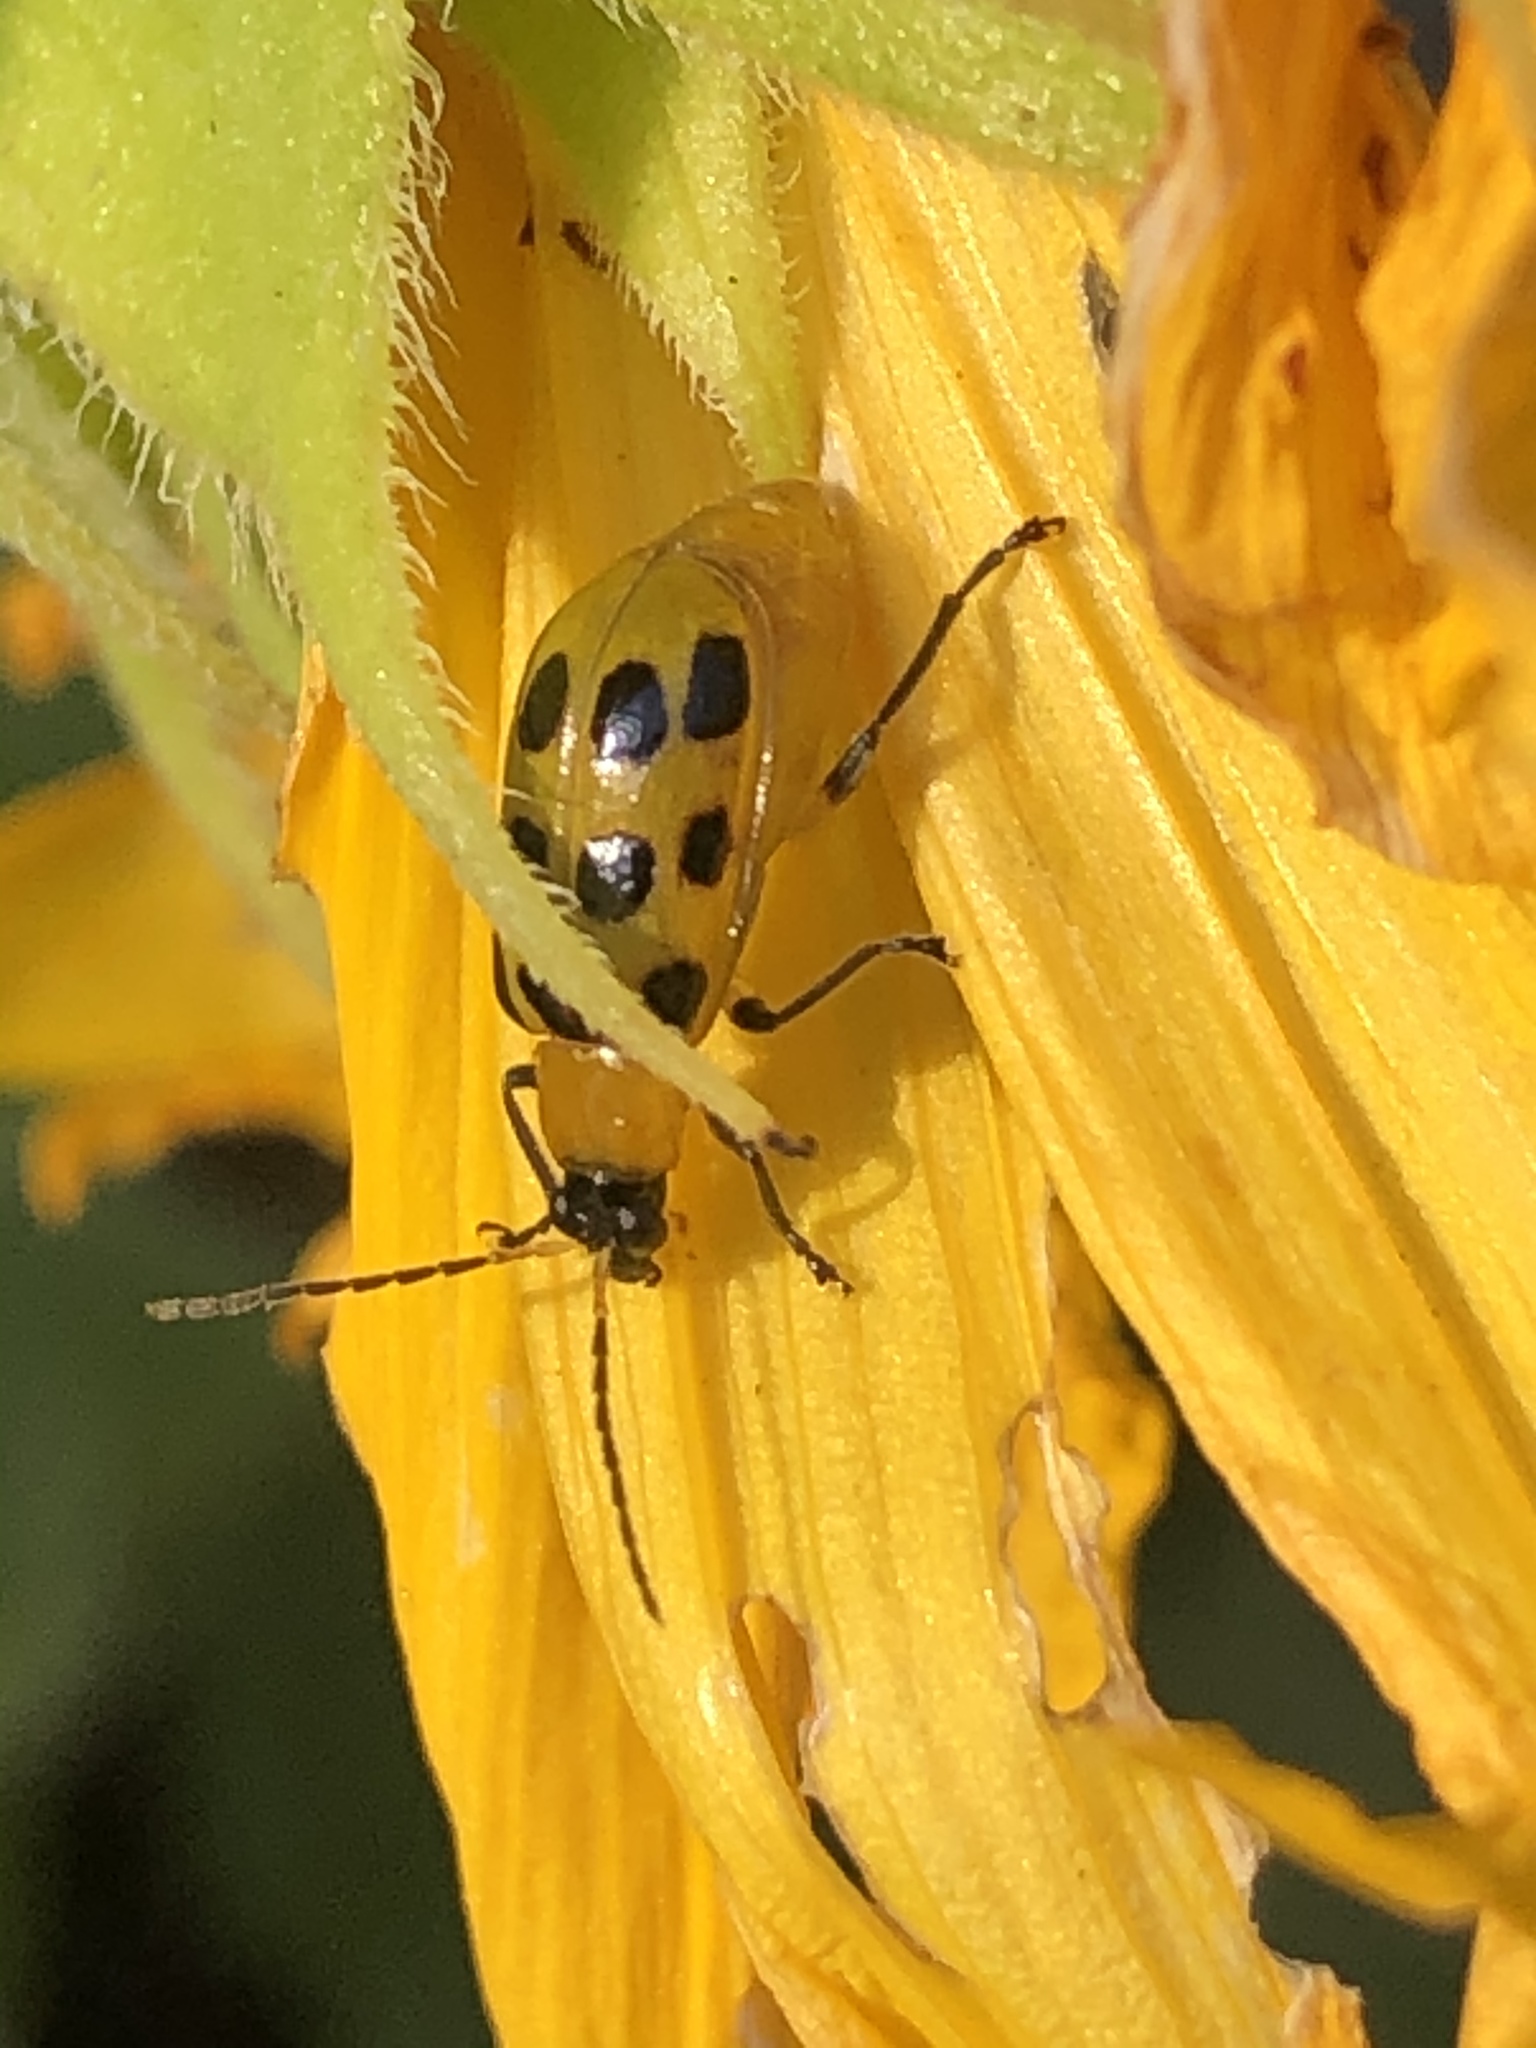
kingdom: Animalia
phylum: Arthropoda
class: Insecta
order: Coleoptera
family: Chrysomelidae
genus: Diabrotica
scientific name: Diabrotica undecimpunctata
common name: Spotted cucumber beetle
